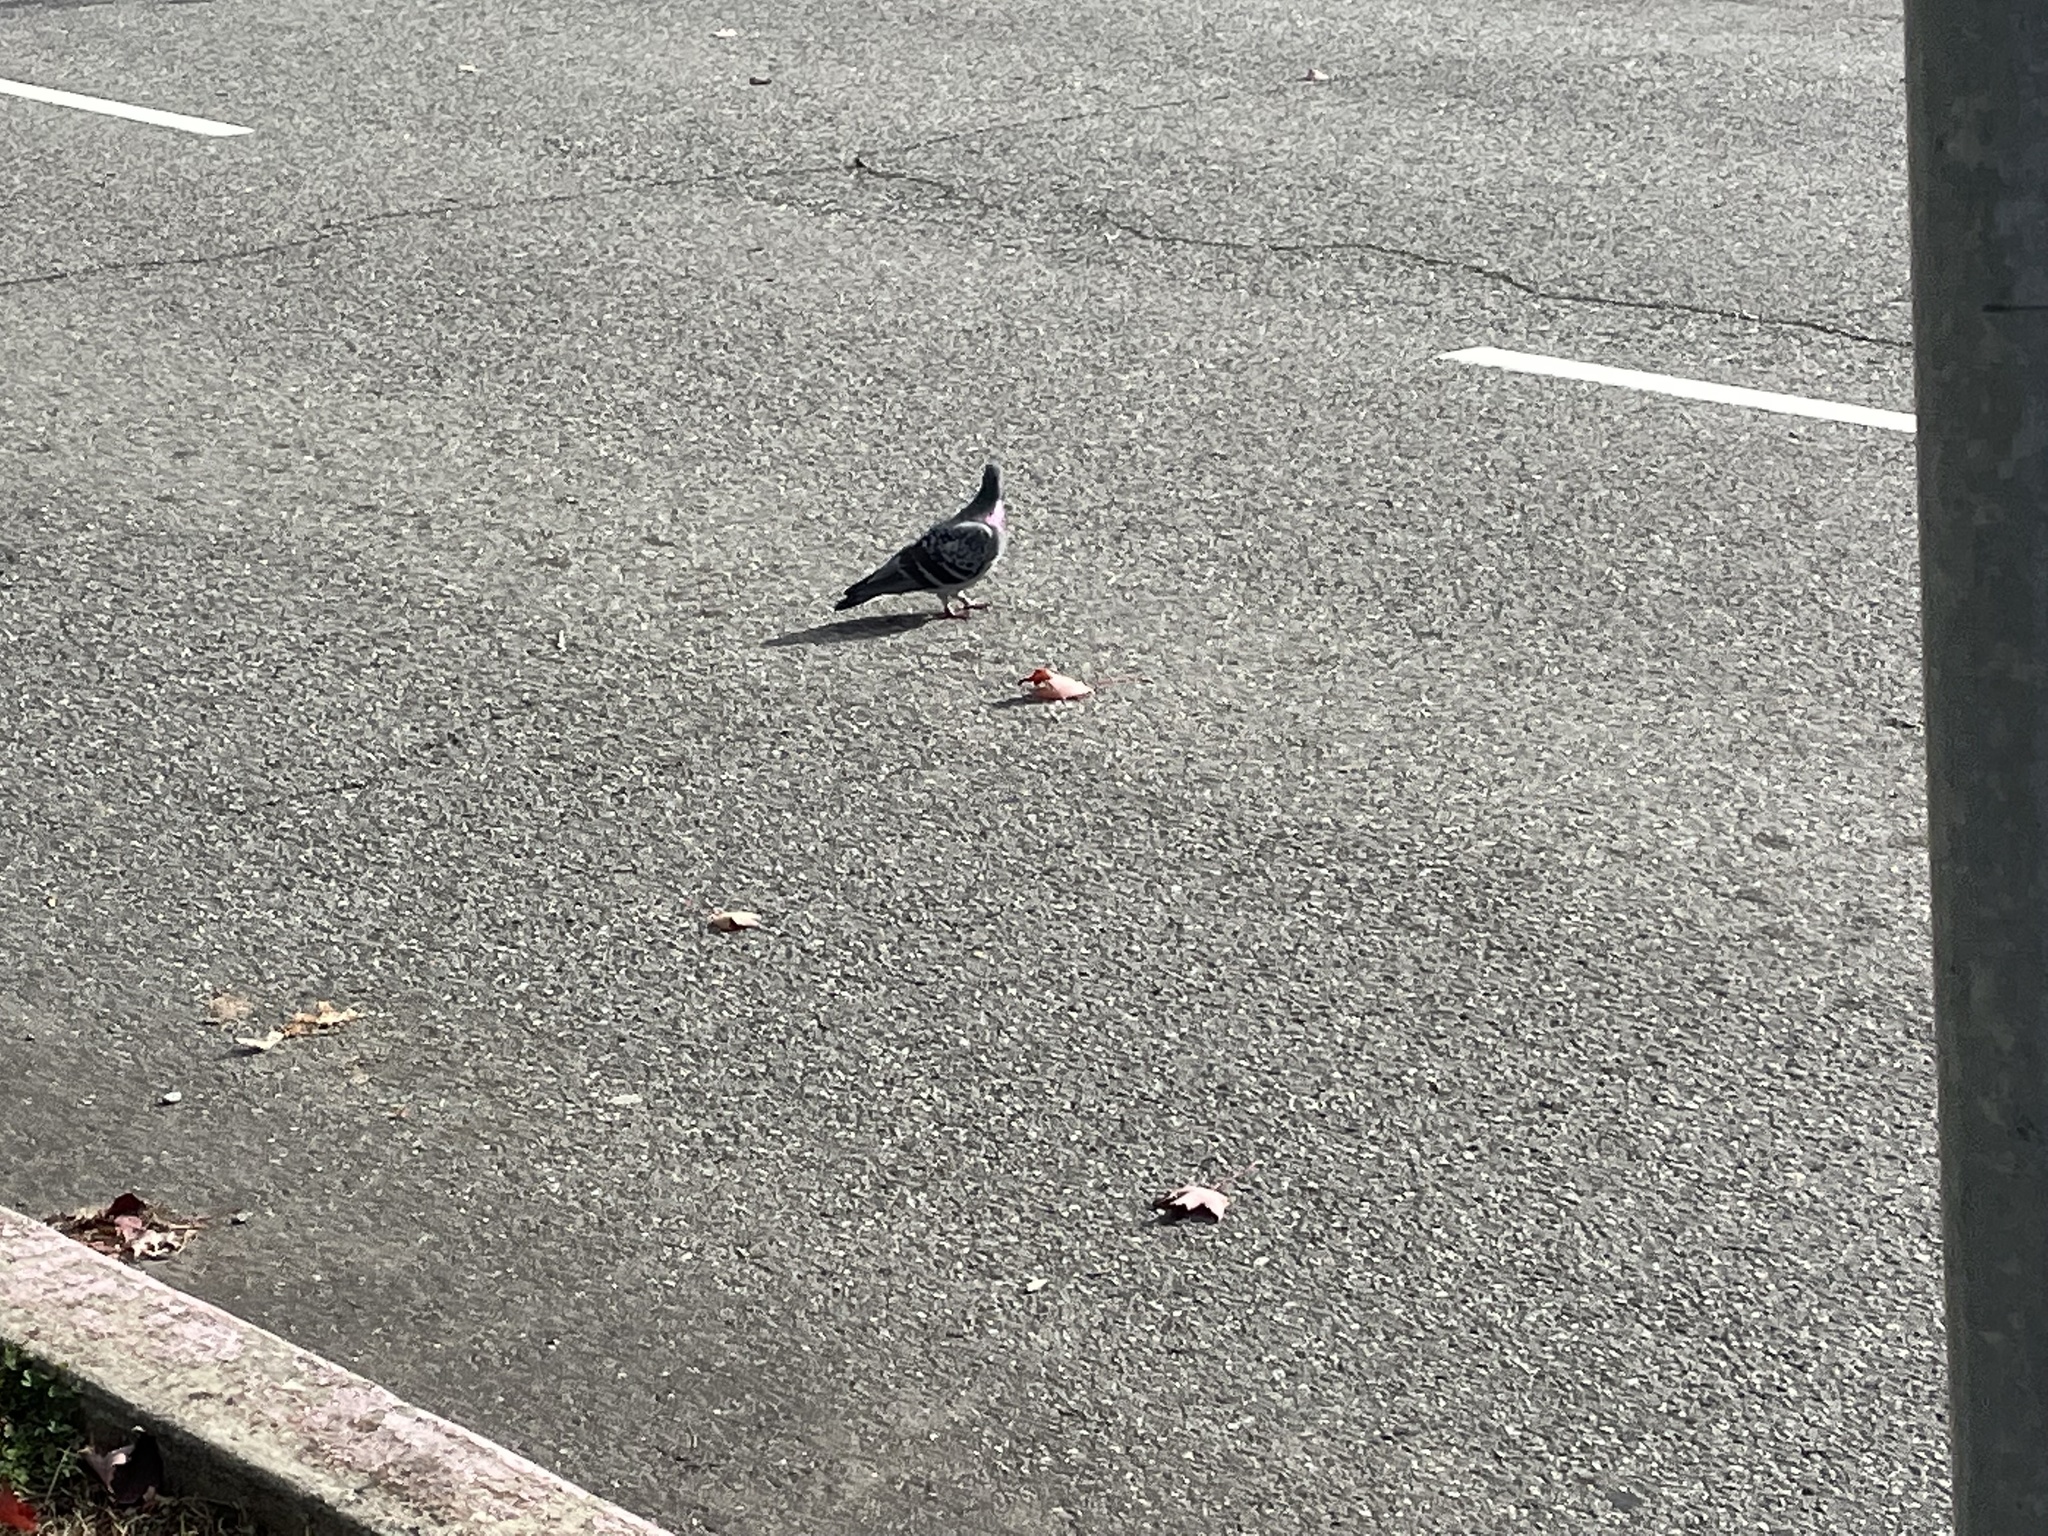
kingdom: Animalia
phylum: Chordata
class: Aves
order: Columbiformes
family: Columbidae
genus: Columba
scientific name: Columba livia
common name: Rock pigeon
